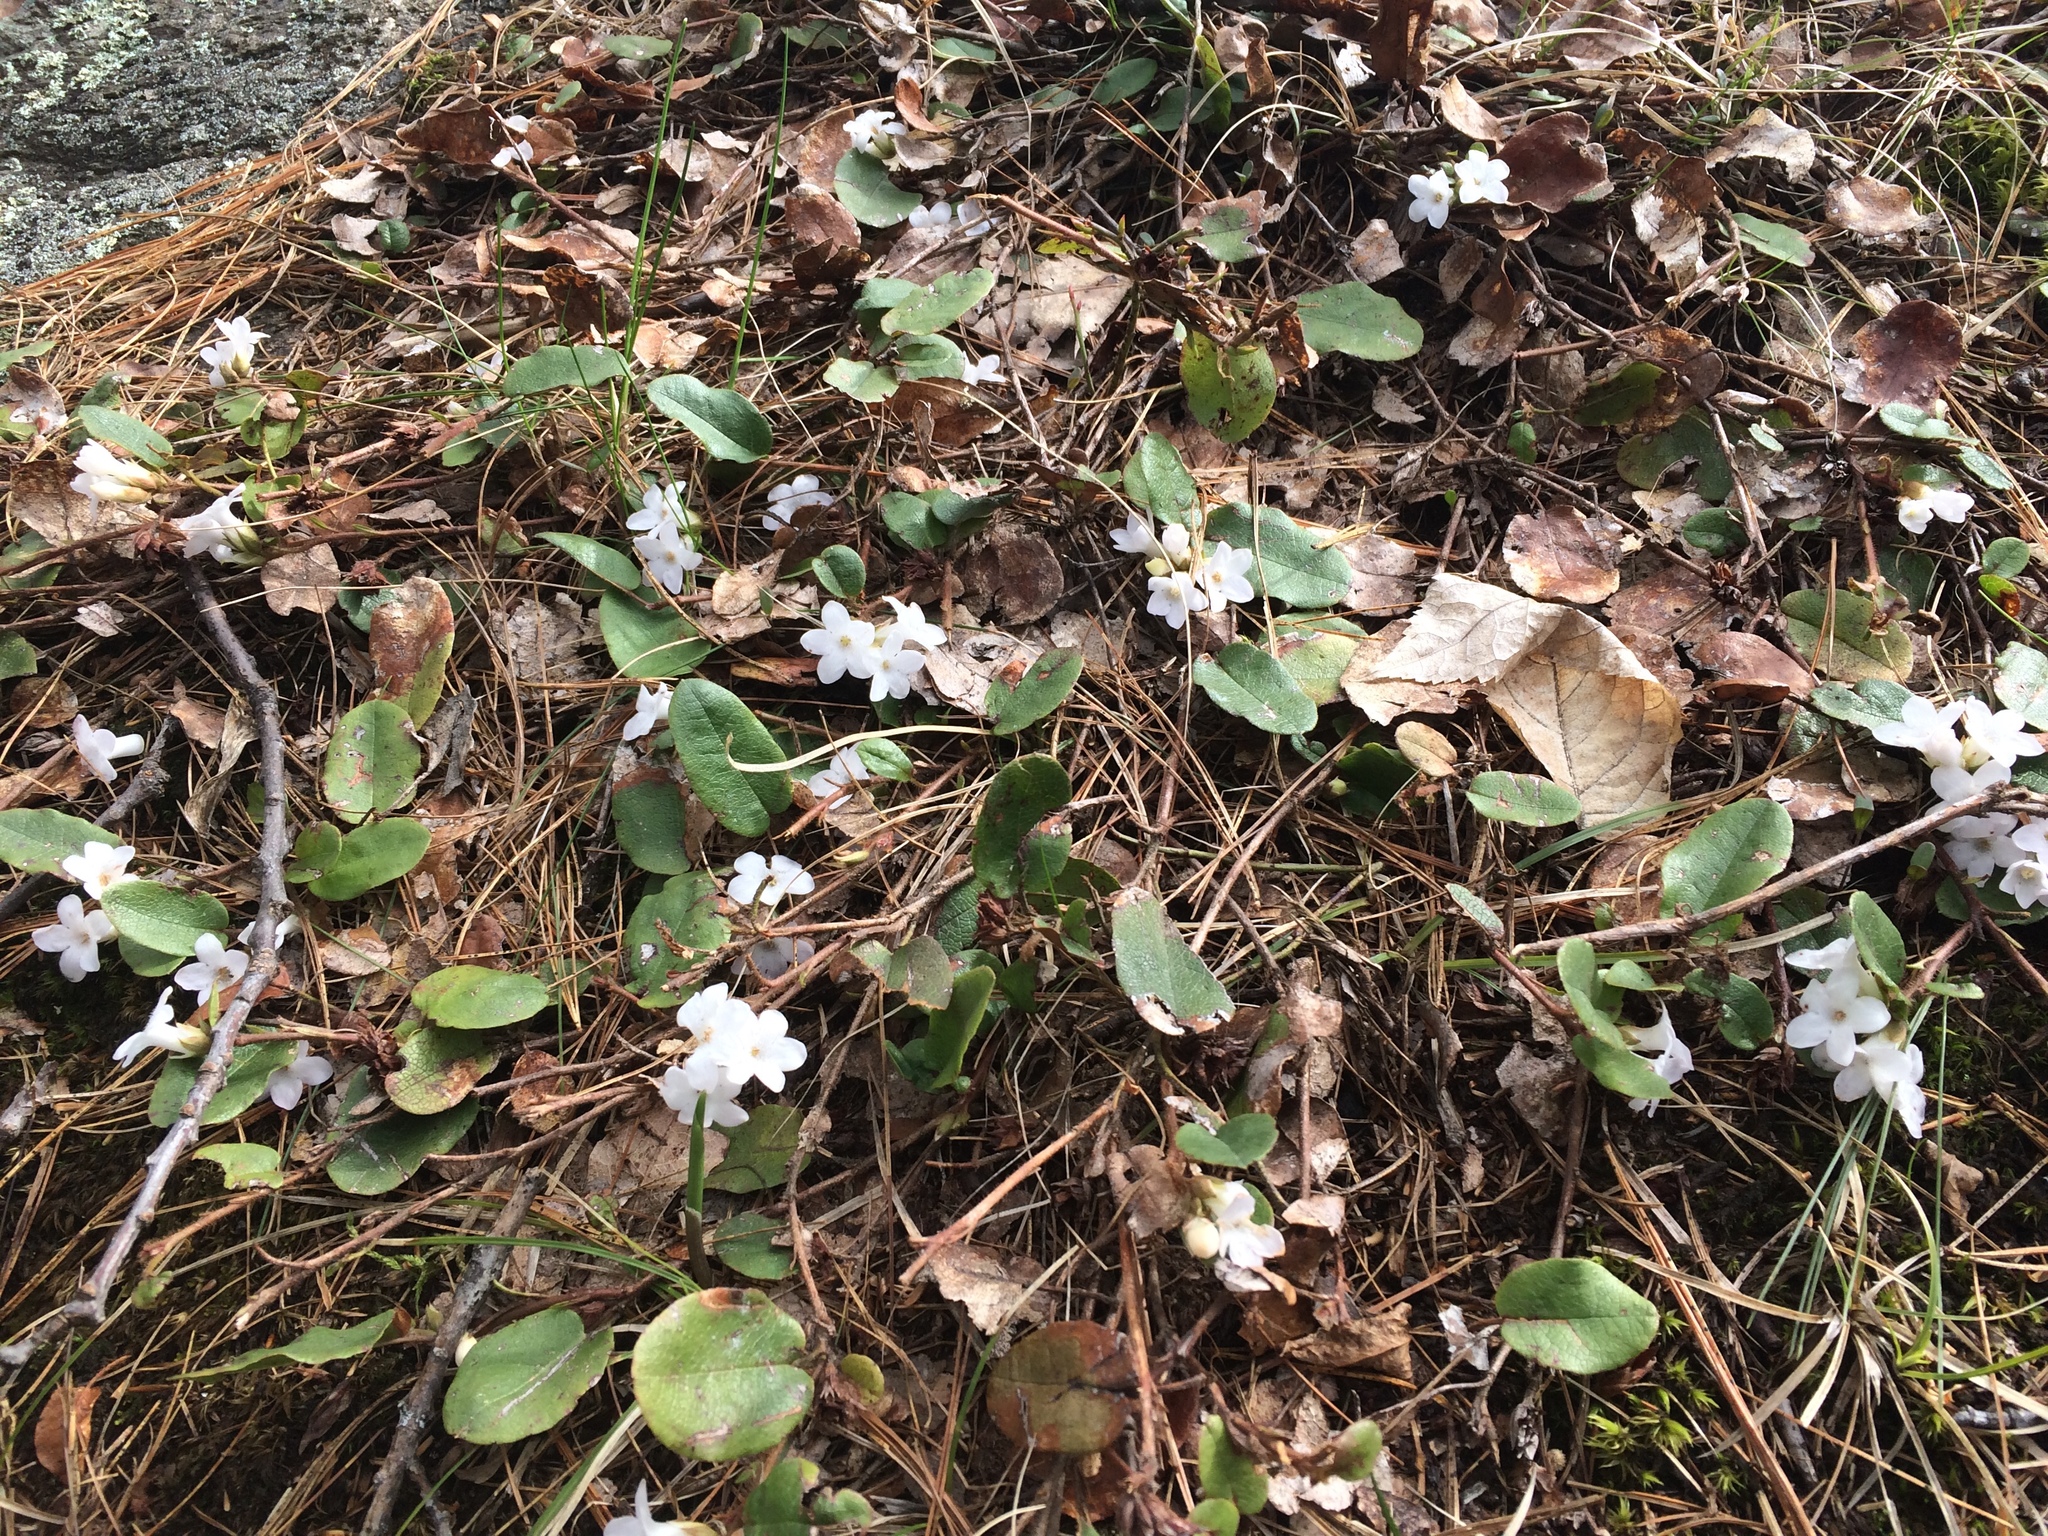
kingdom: Plantae
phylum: Tracheophyta
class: Magnoliopsida
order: Ericales
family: Ericaceae
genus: Epigaea
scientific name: Epigaea repens
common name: Gravelroot
